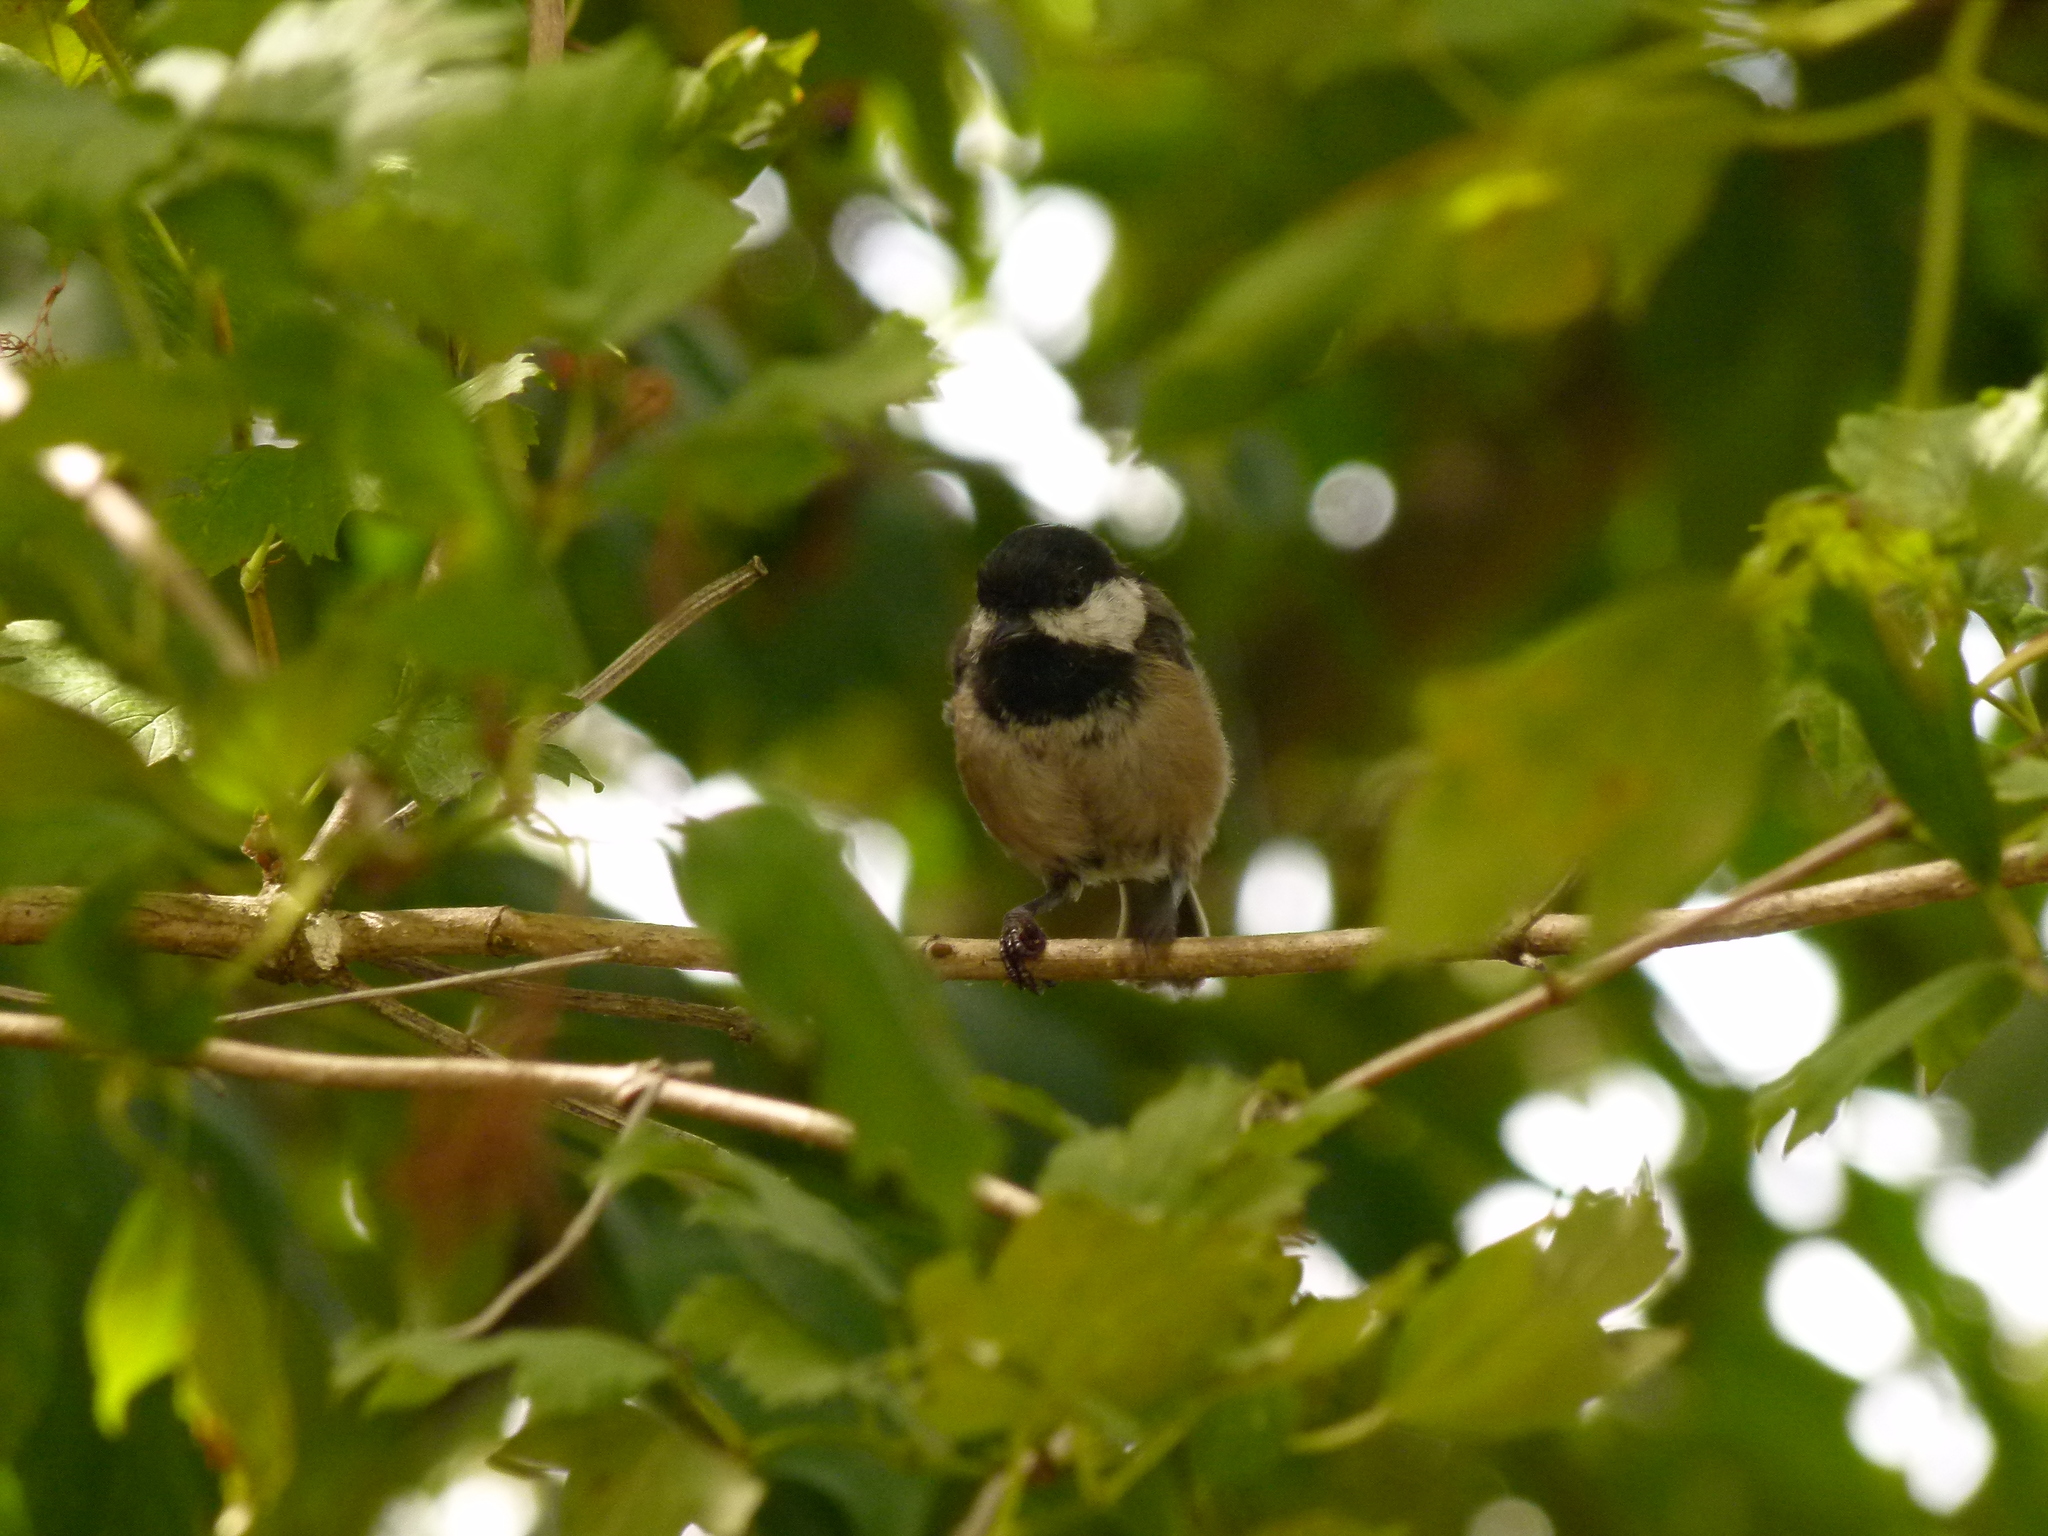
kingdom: Animalia
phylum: Chordata
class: Aves
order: Passeriformes
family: Paridae
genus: Poecile
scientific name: Poecile atricapillus
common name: Black-capped chickadee
